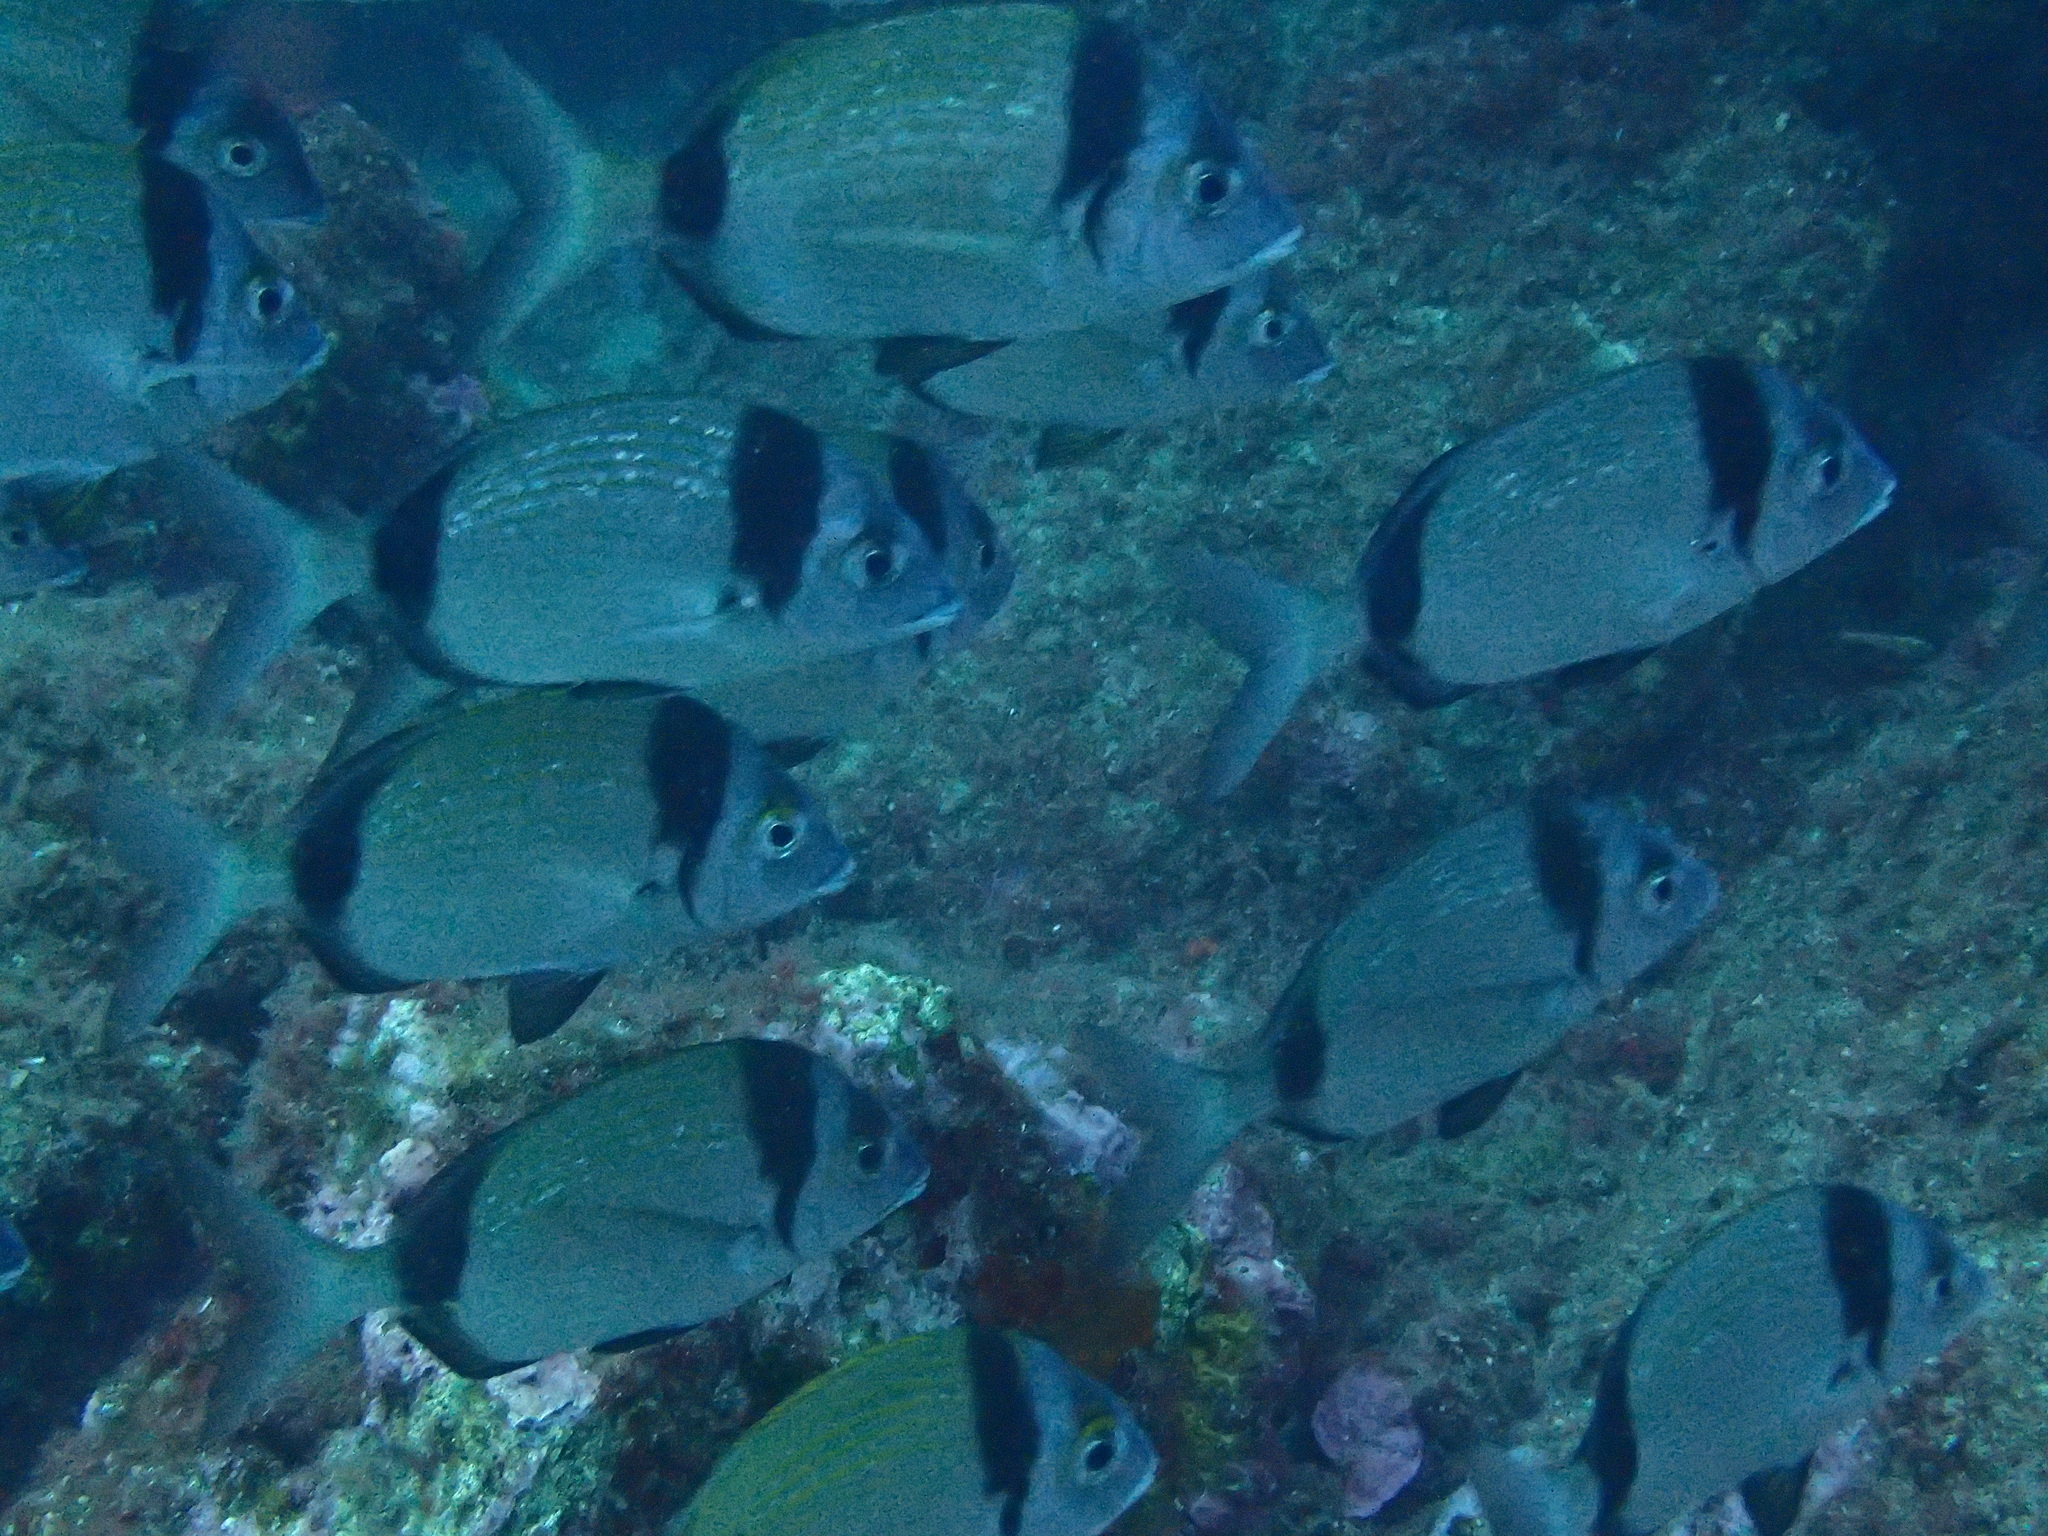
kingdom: Animalia
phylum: Chordata
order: Perciformes
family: Sparidae
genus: Diplodus
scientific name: Diplodus vulgaris
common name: Common two-banded seabream
